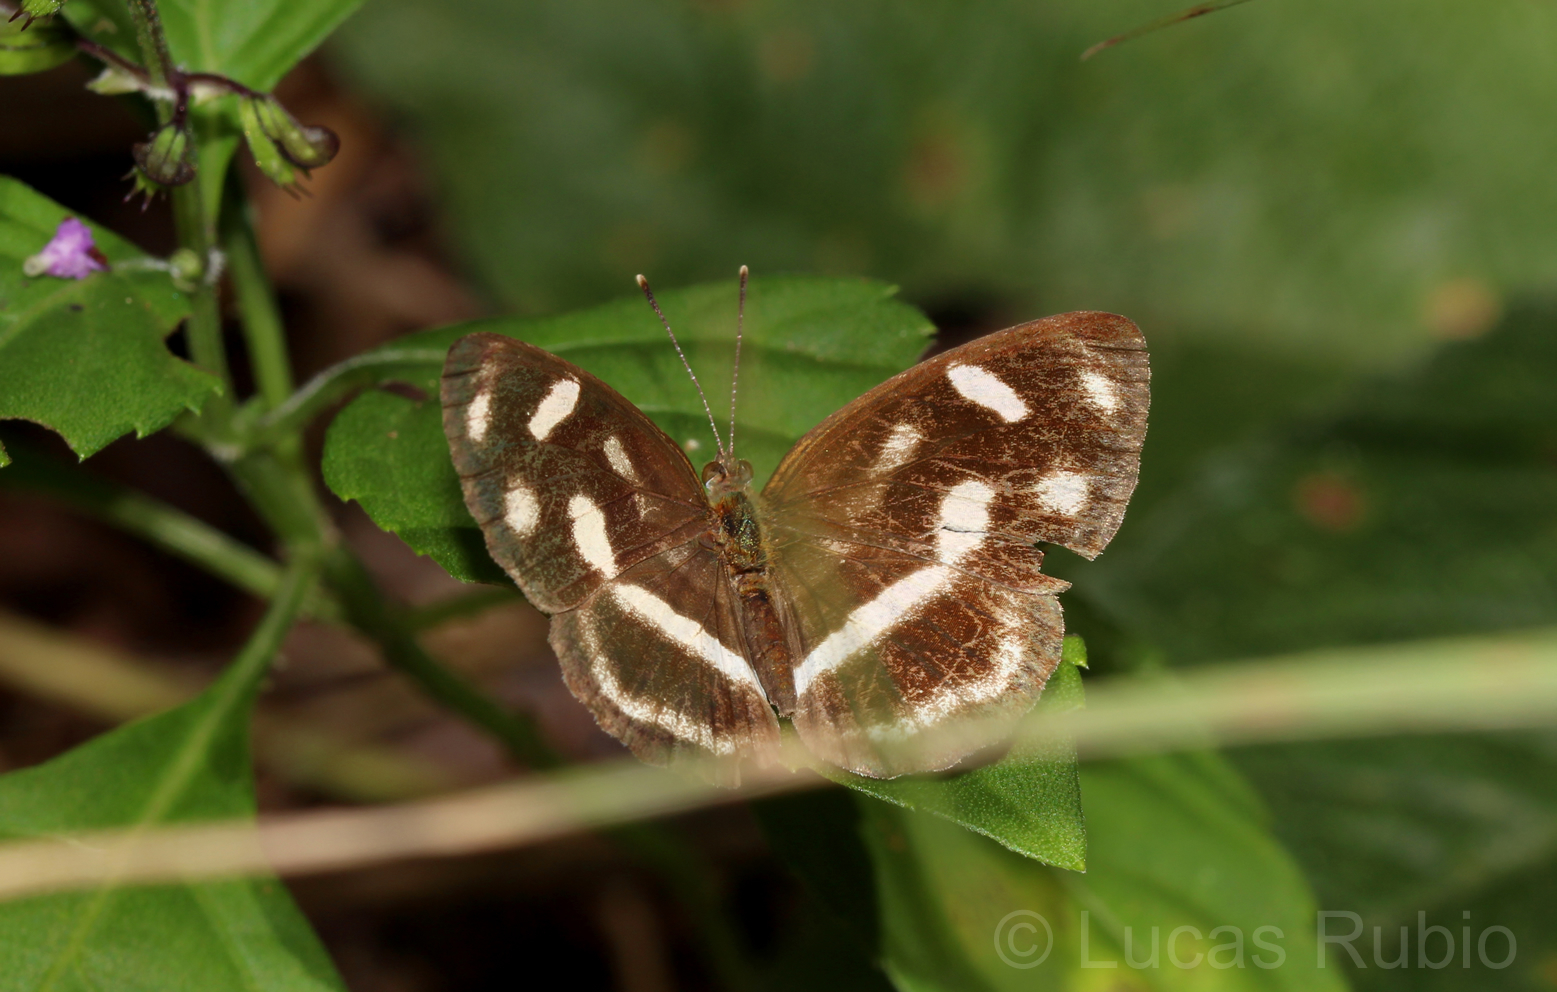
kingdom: Animalia
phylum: Arthropoda
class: Insecta
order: Lepidoptera
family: Nymphalidae
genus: Dynamine
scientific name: Dynamine artemisia
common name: Small-eyed sailor
